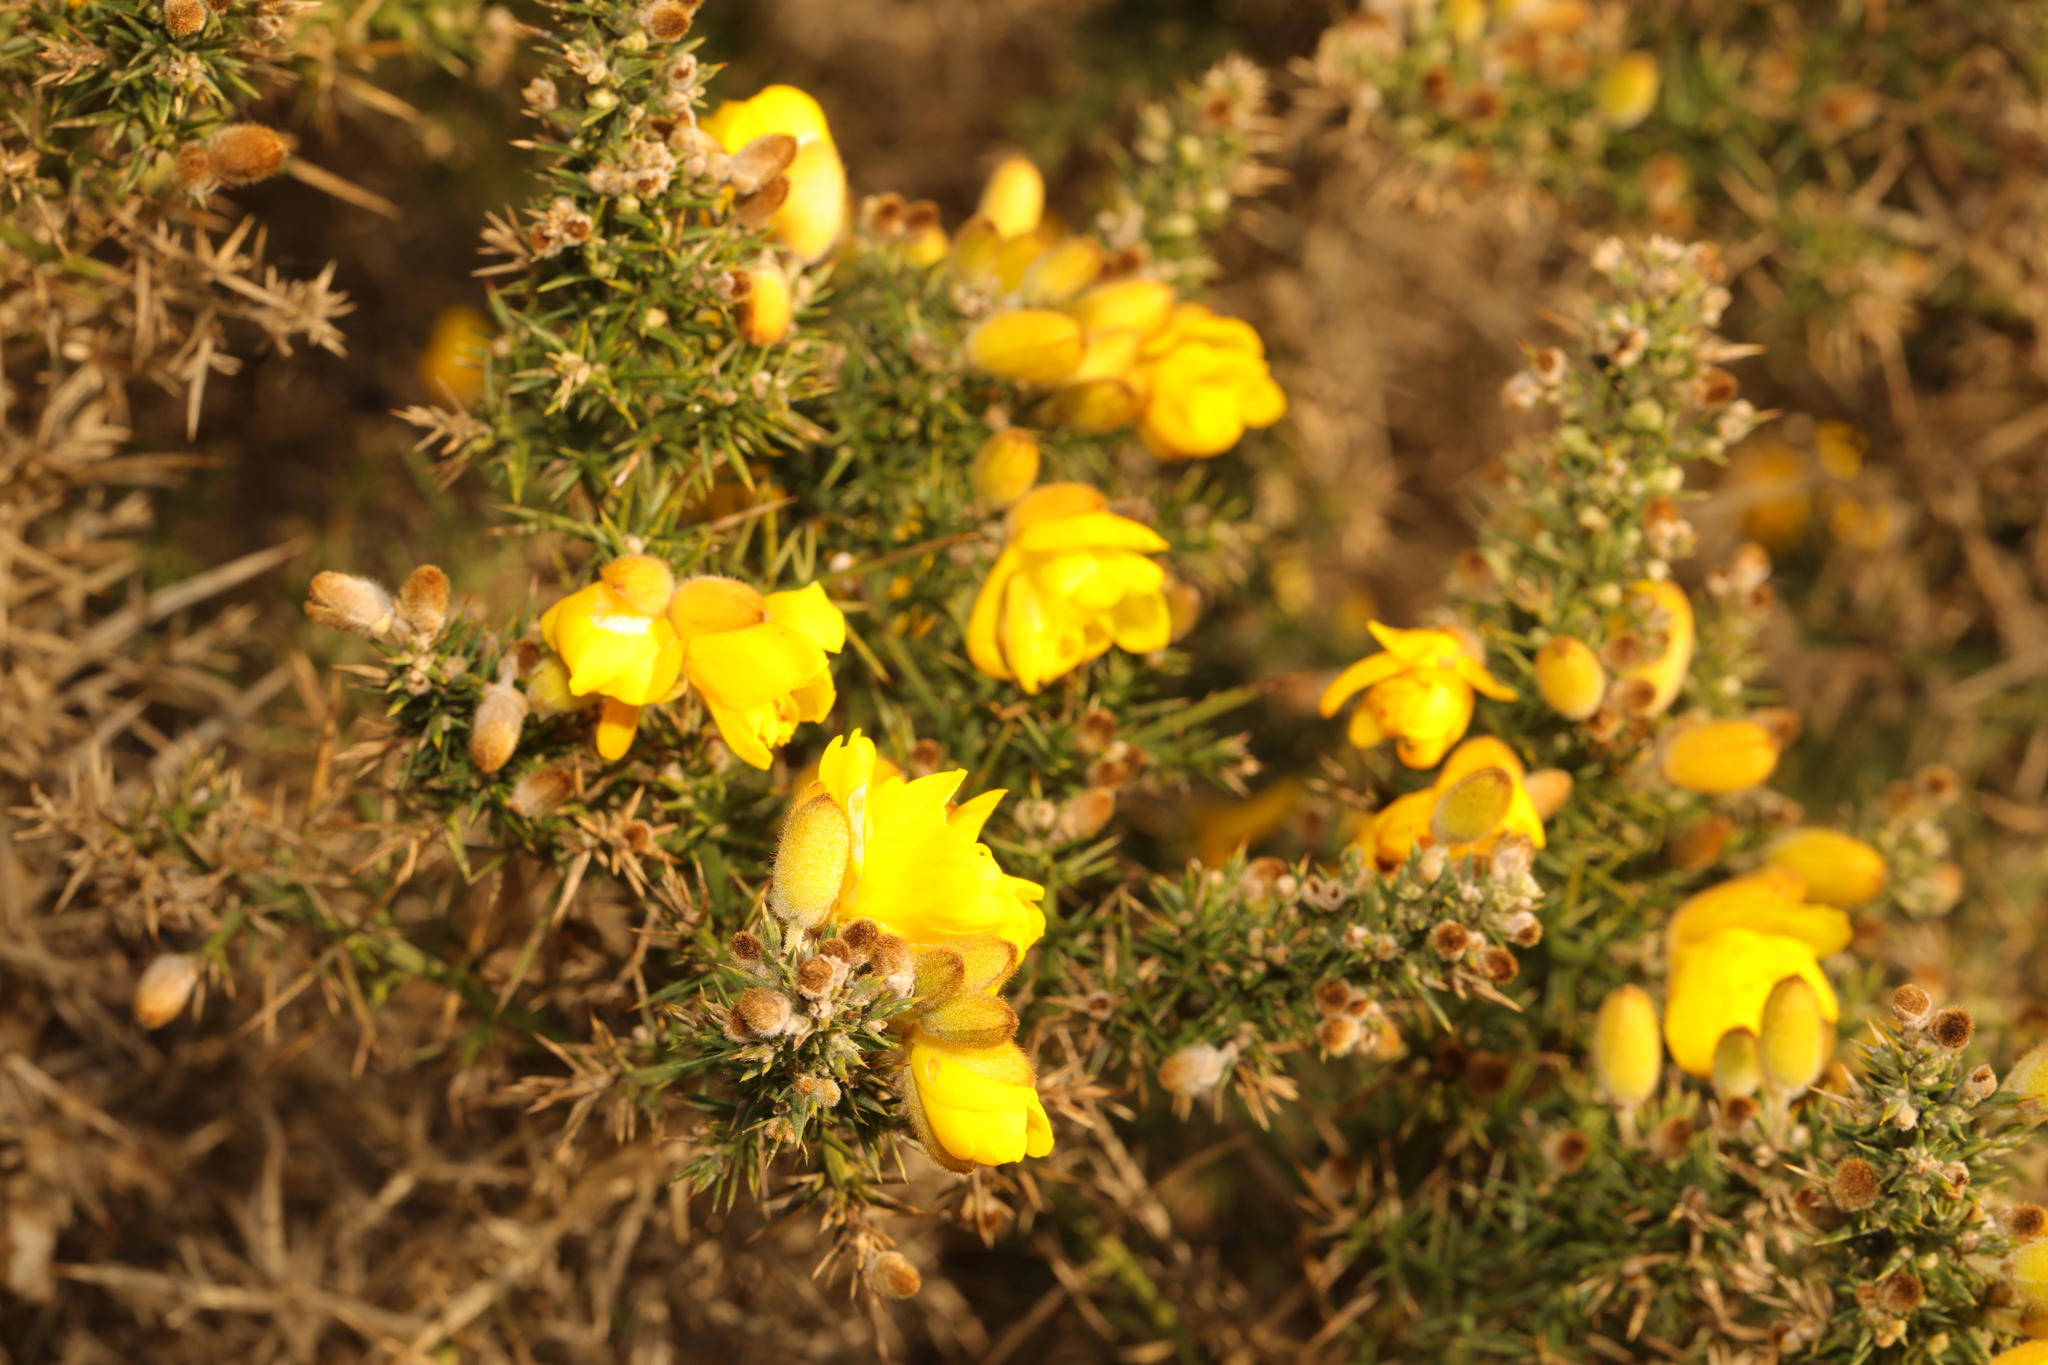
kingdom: Plantae
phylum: Tracheophyta
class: Magnoliopsida
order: Fabales
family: Fabaceae
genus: Ulex
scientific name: Ulex europaeus
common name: Common gorse
